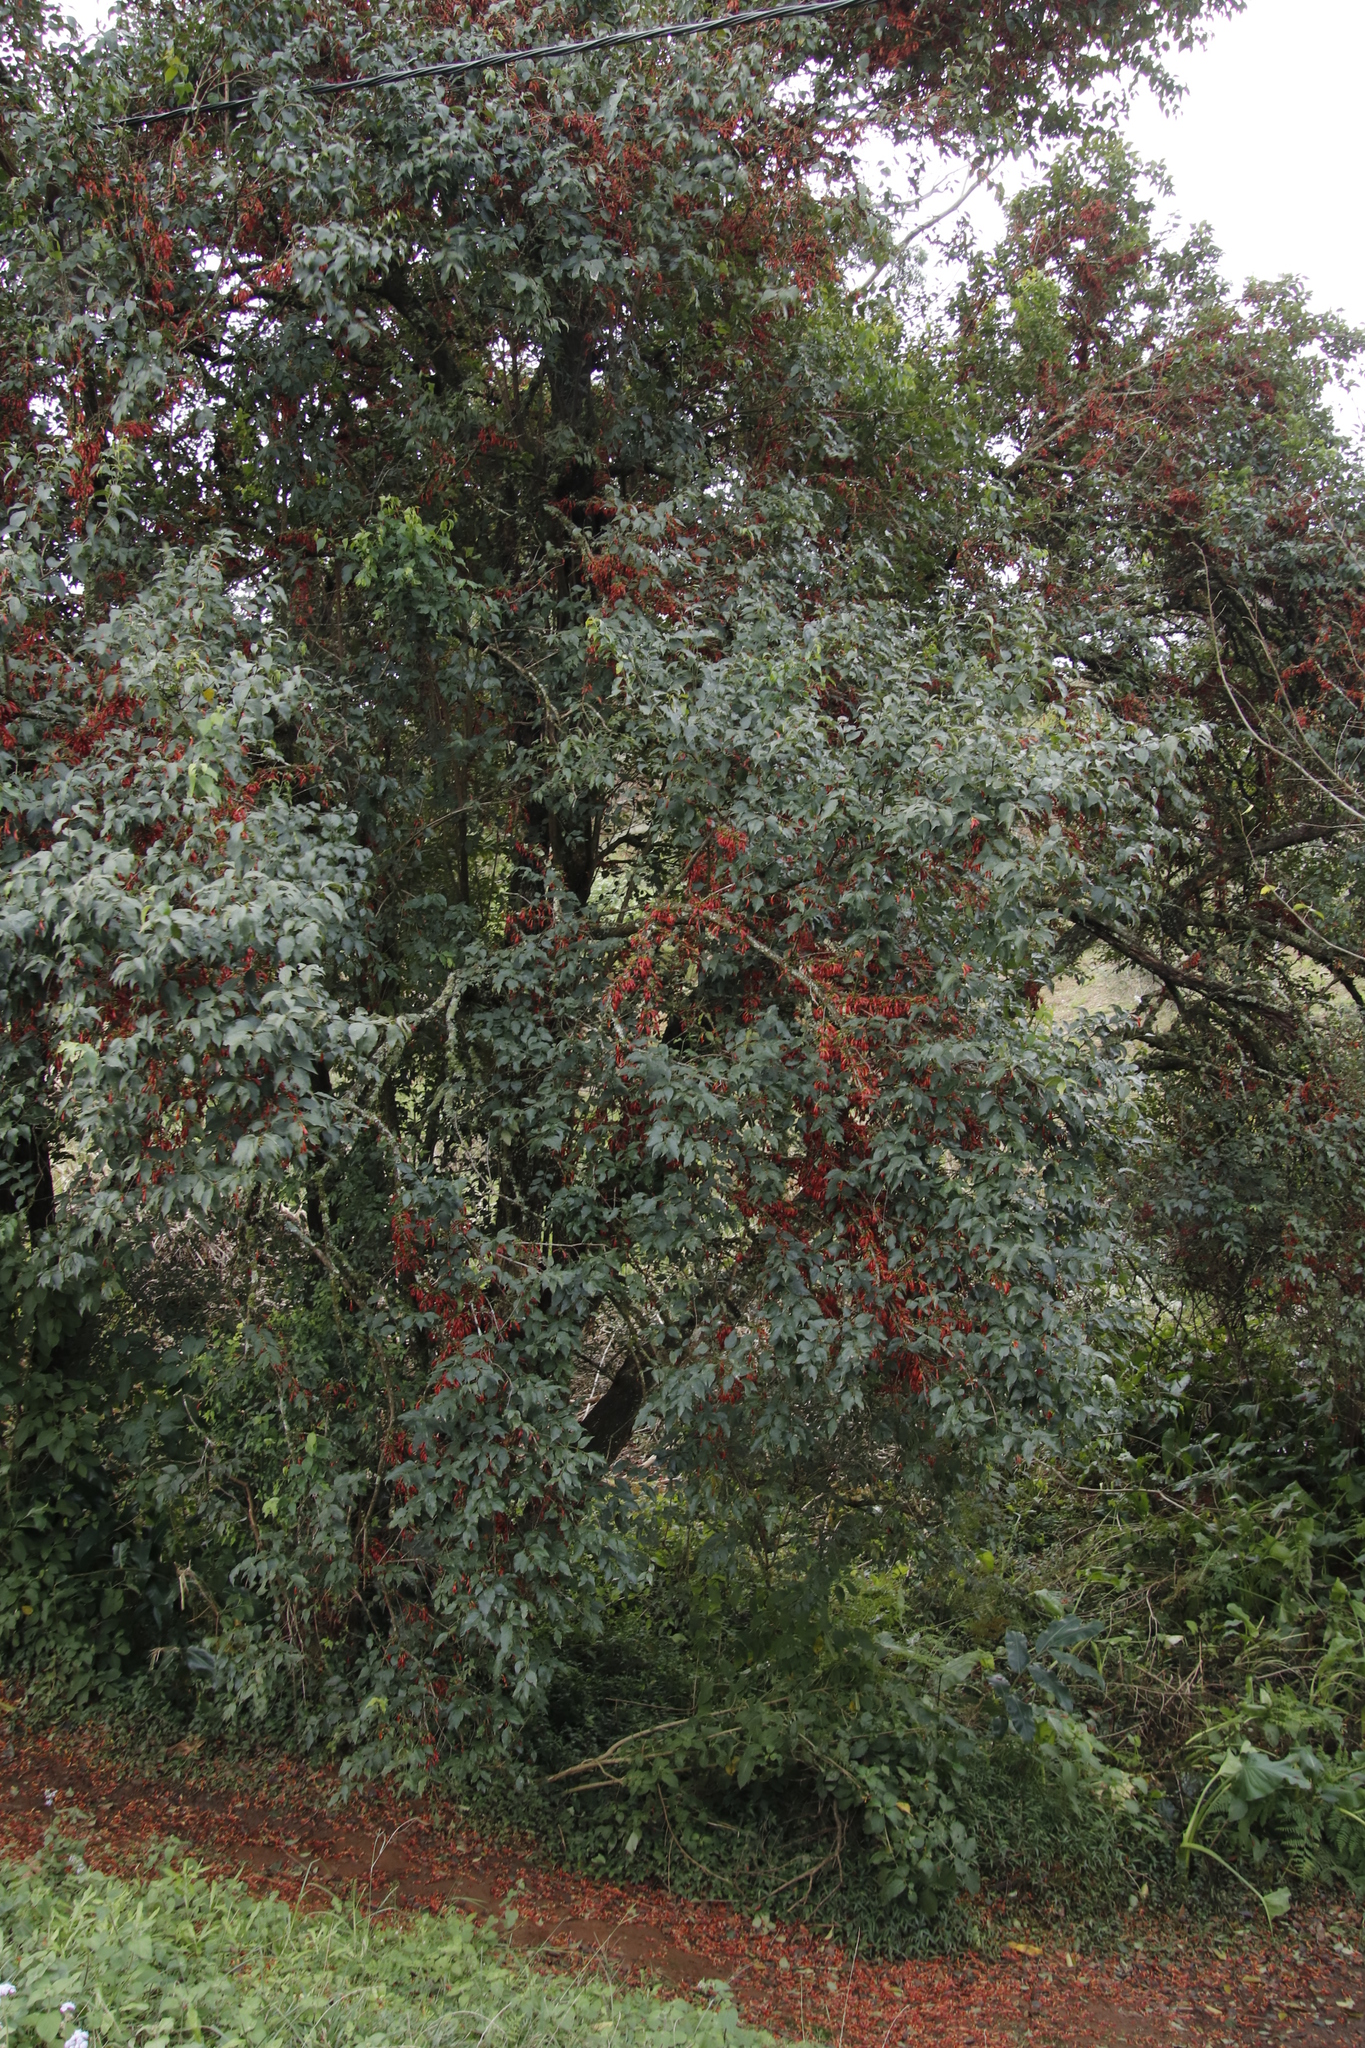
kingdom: Plantae
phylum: Tracheophyta
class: Magnoliopsida
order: Lamiales
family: Stilbaceae
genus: Halleria
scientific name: Halleria lucida
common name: Tree fuschia
